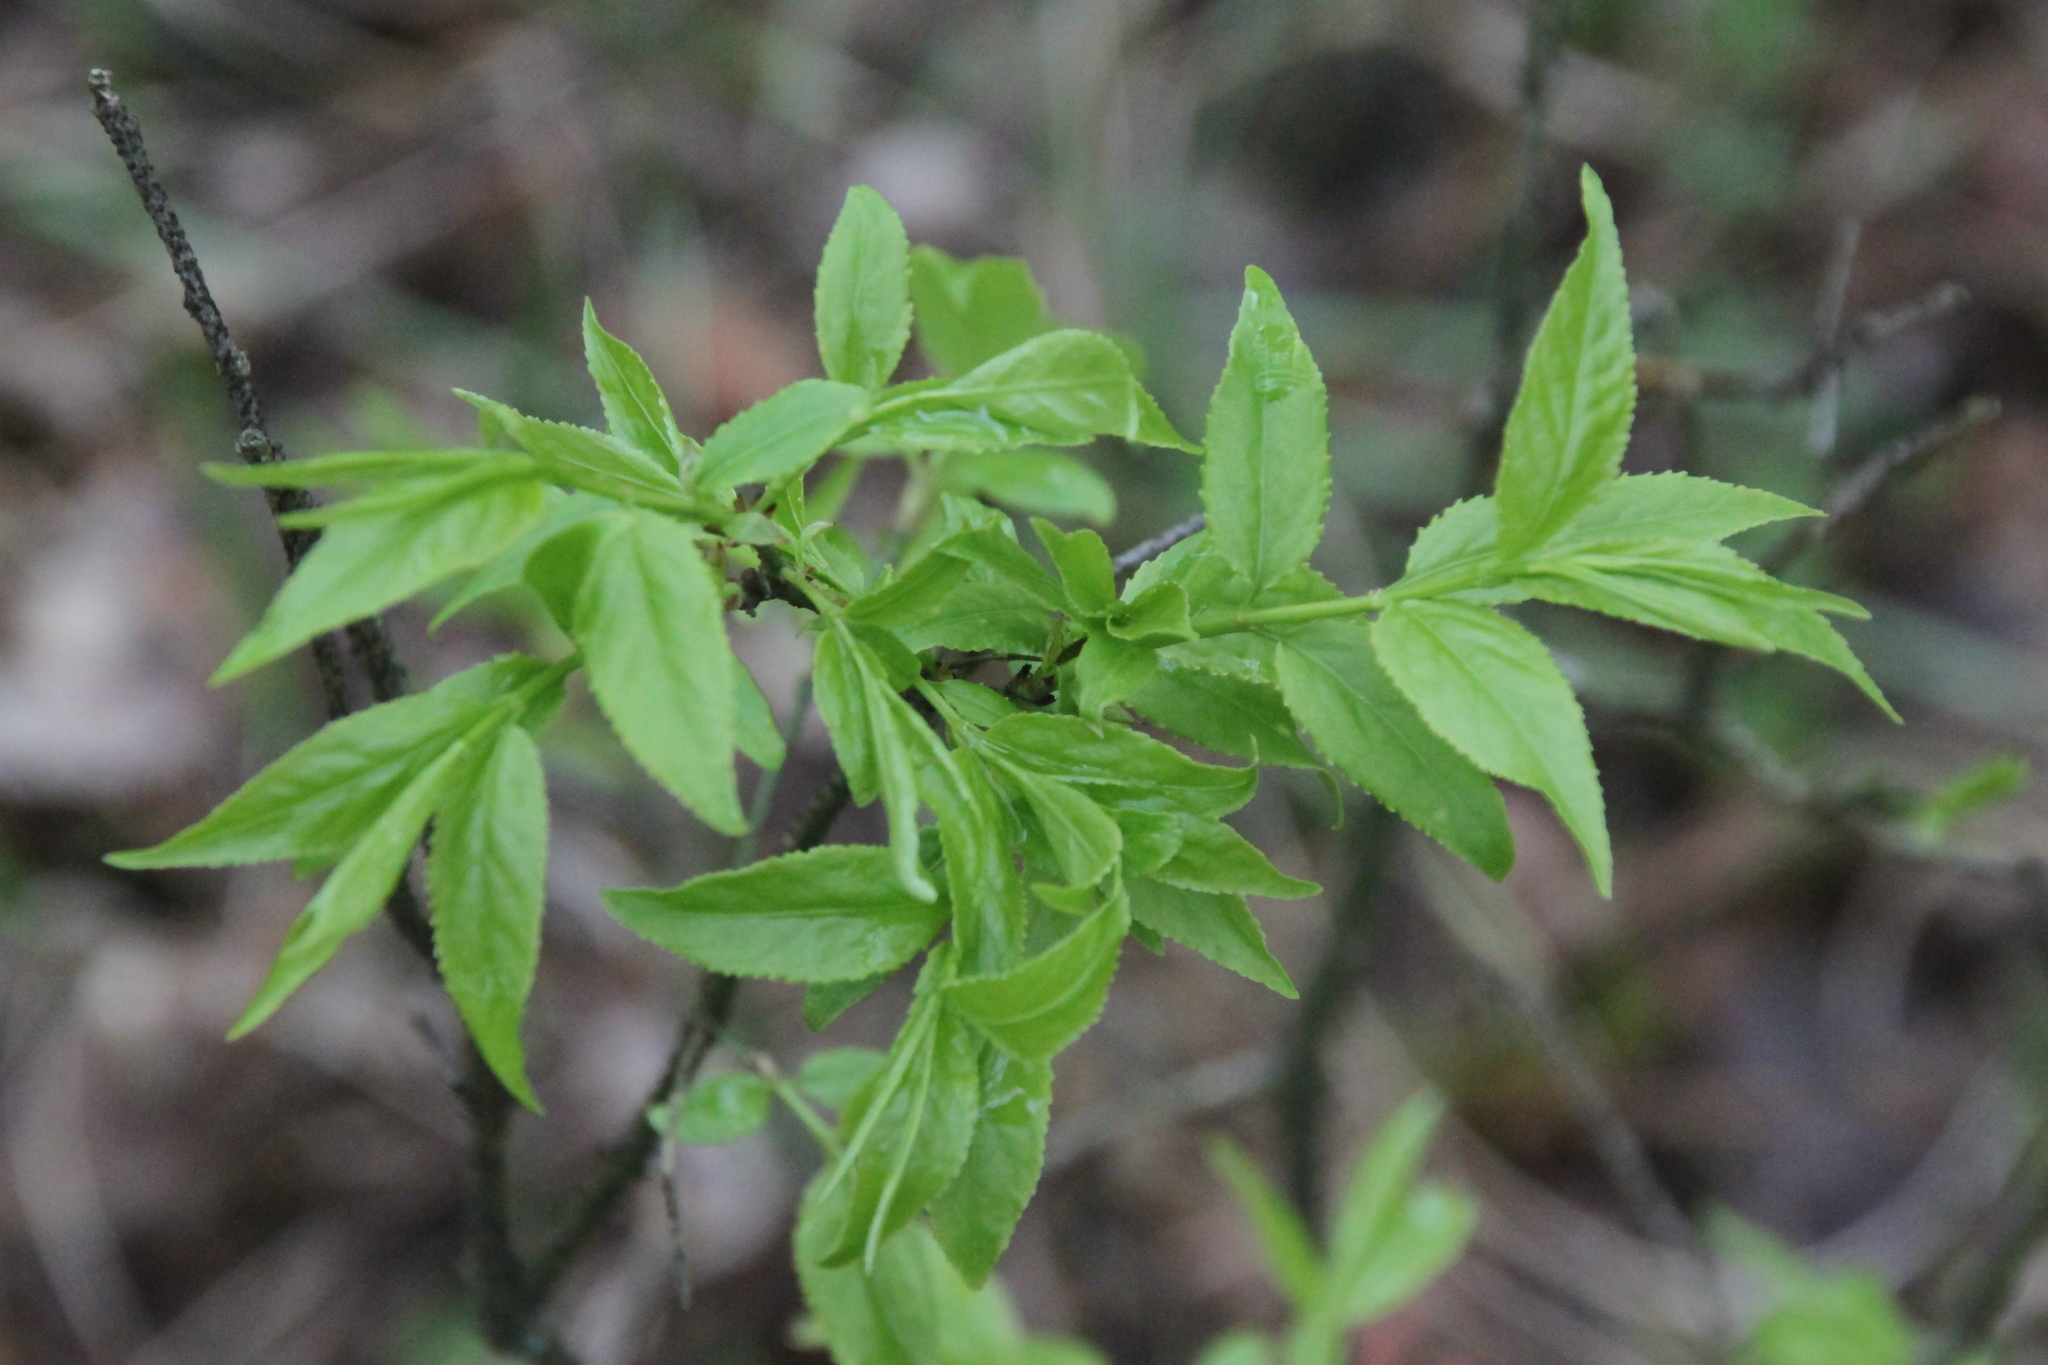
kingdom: Plantae
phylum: Tracheophyta
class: Magnoliopsida
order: Celastrales
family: Celastraceae
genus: Euonymus
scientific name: Euonymus verrucosus
